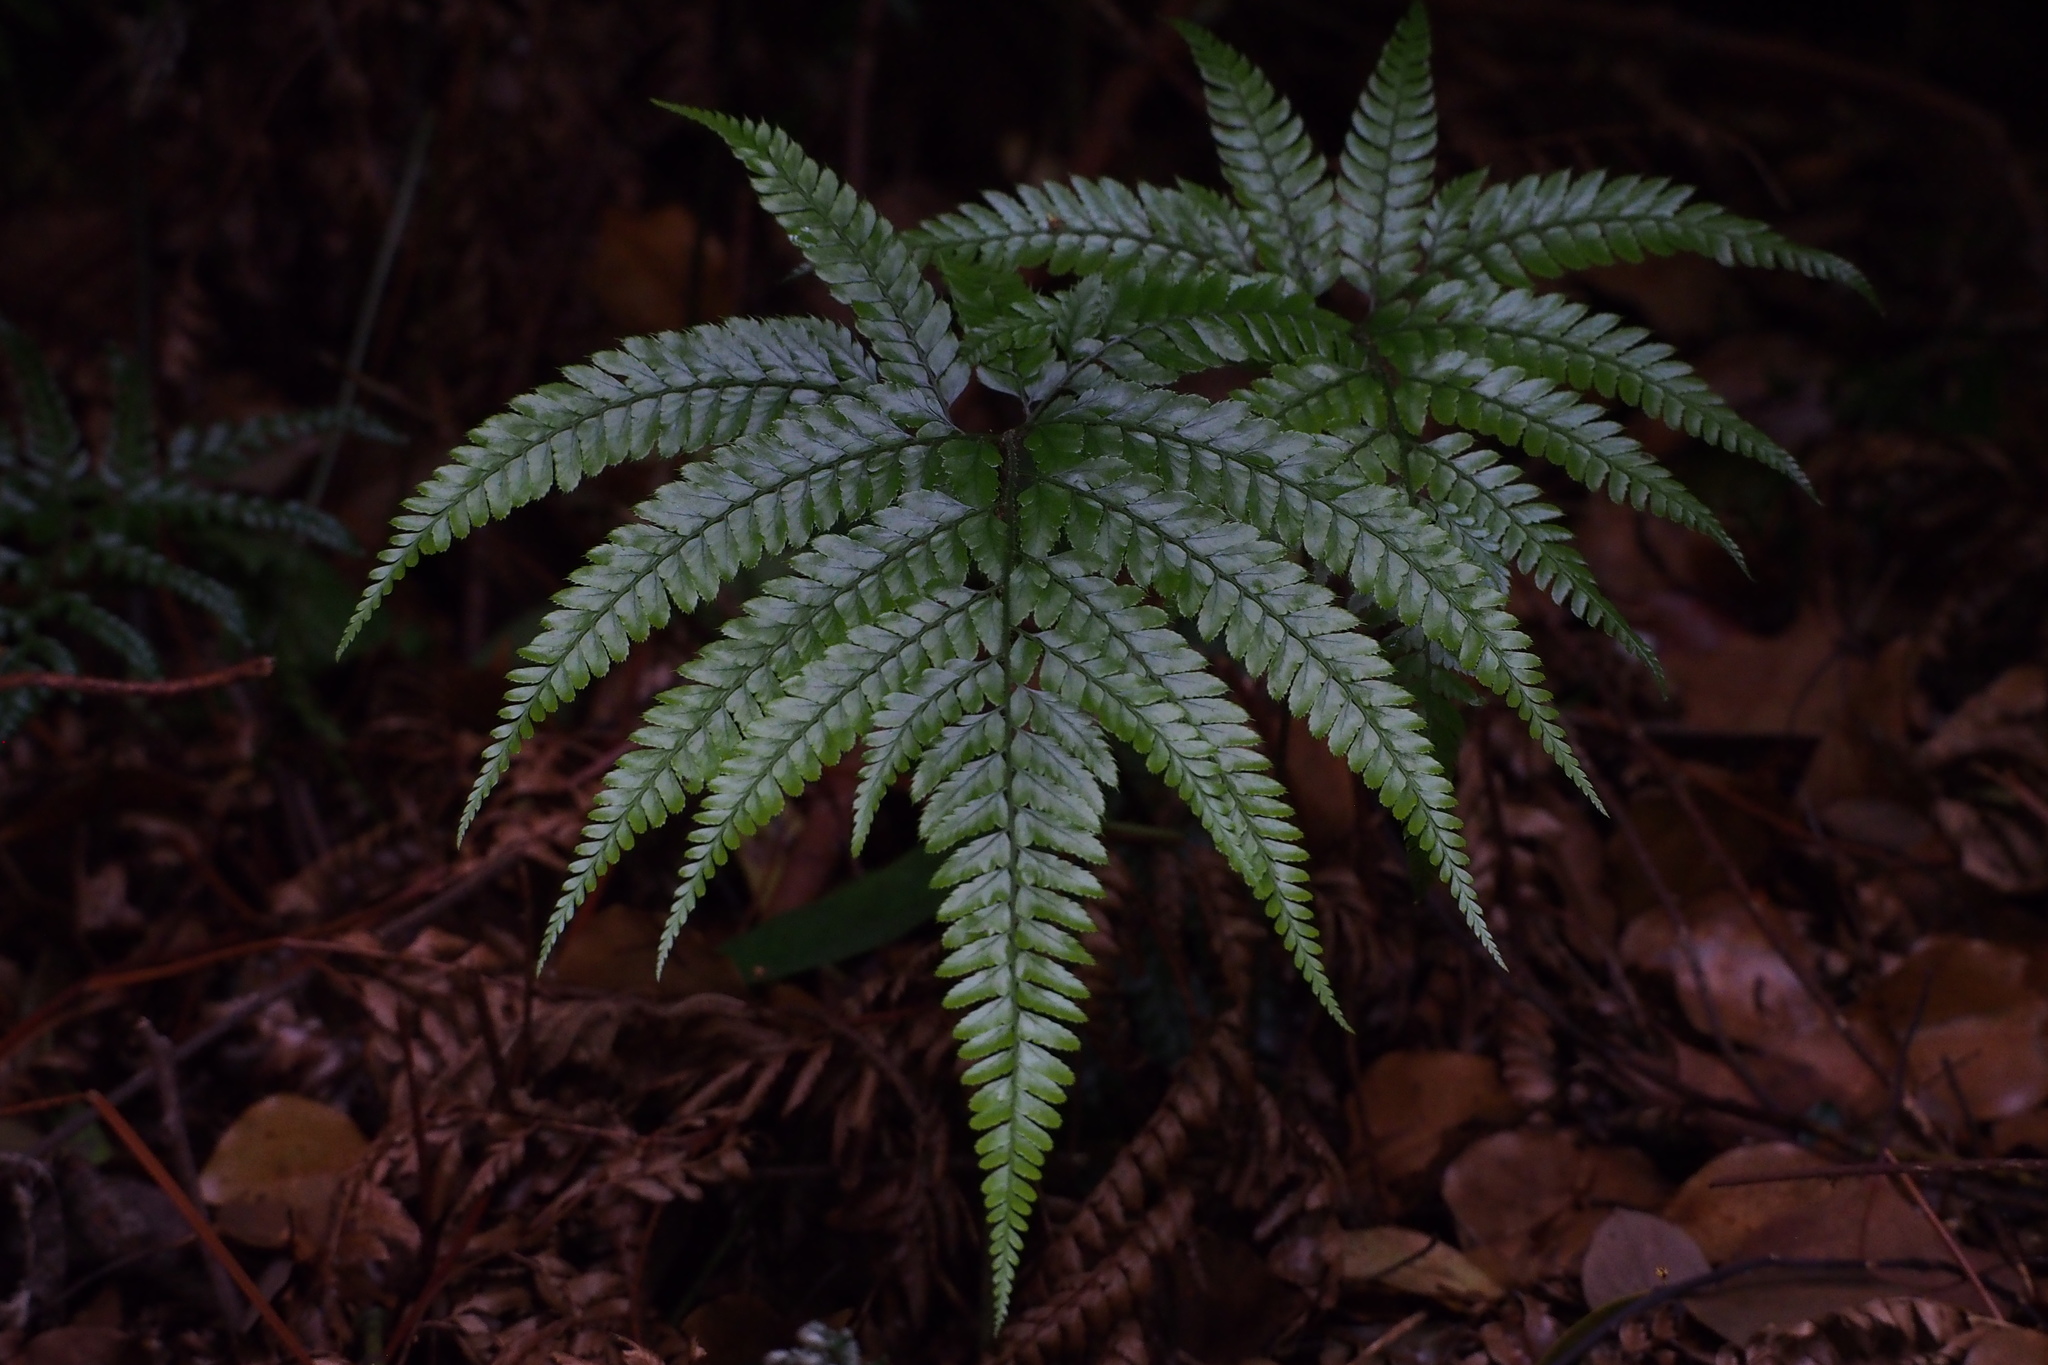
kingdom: Plantae
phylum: Tracheophyta
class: Polypodiopsida
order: Polypodiales
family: Dryopteridaceae
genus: Arachniodes
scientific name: Arachniodes aristata
